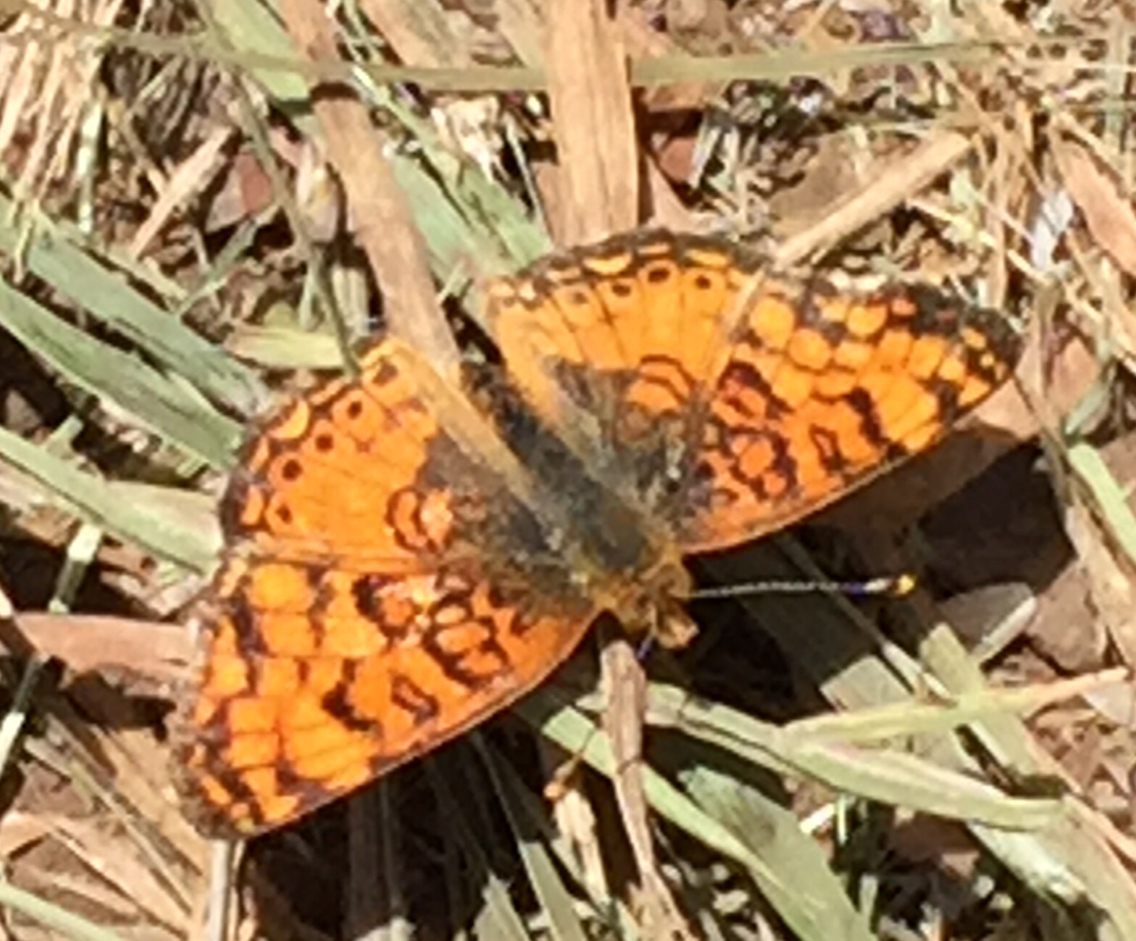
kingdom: Animalia
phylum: Arthropoda
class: Insecta
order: Lepidoptera
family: Nymphalidae
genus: Eresia
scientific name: Eresia aveyrona
